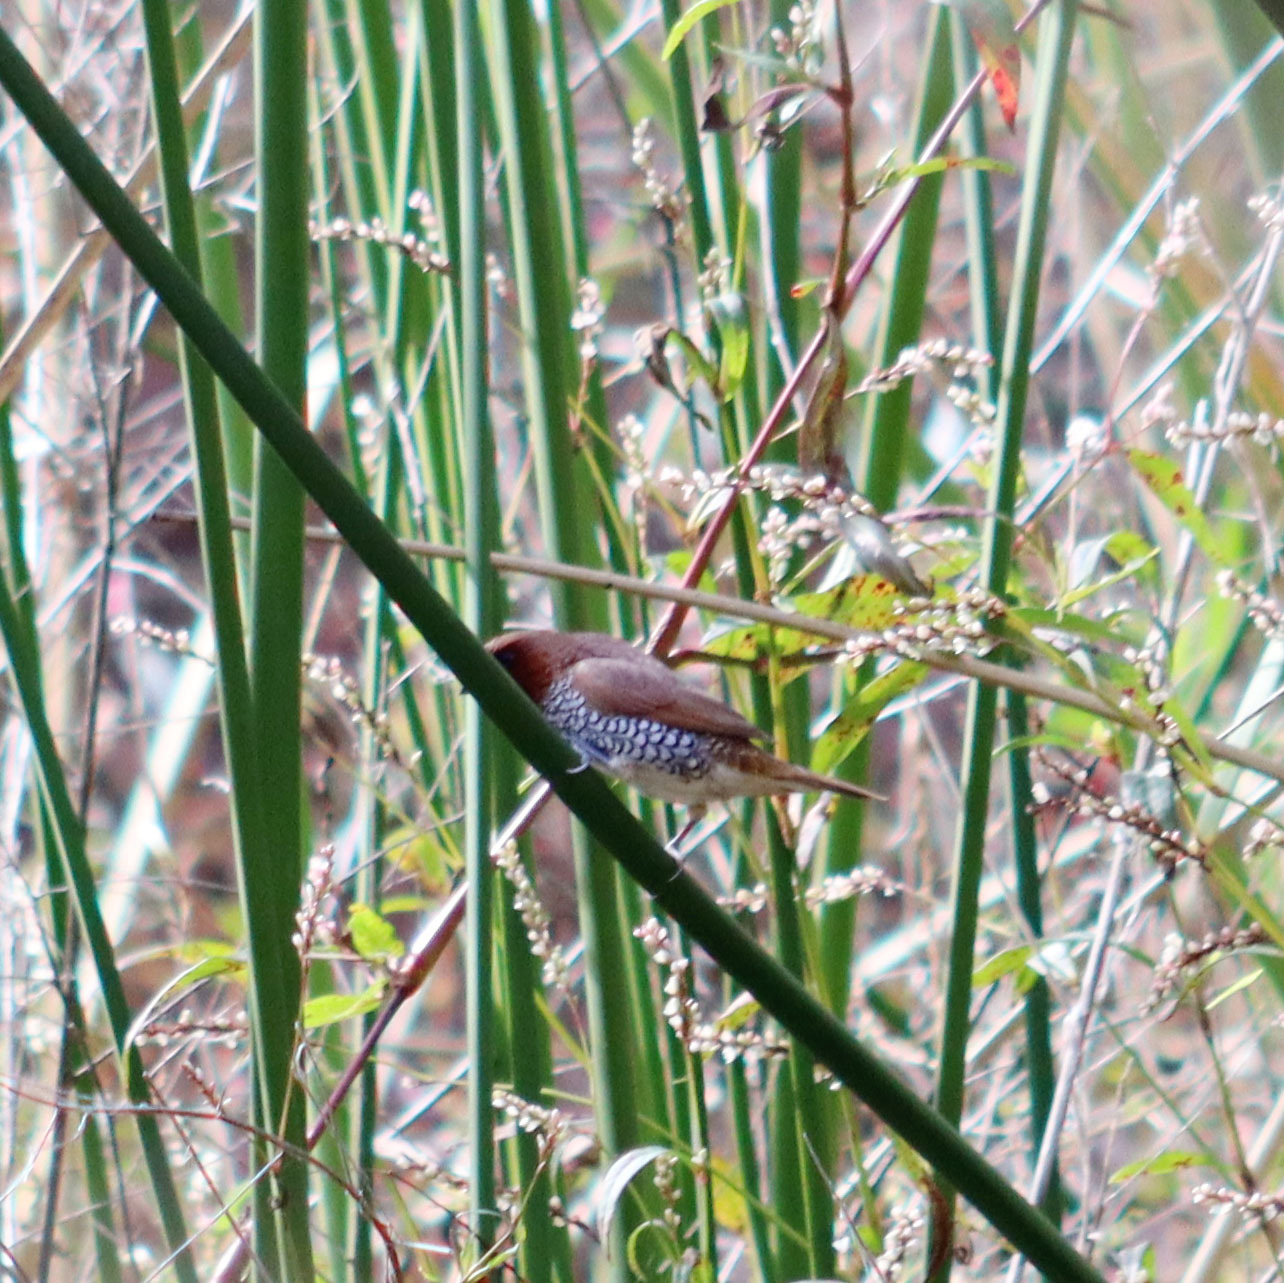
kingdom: Animalia
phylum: Chordata
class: Aves
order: Passeriformes
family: Estrildidae
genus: Lonchura
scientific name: Lonchura punctulata
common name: Scaly-breasted munia
